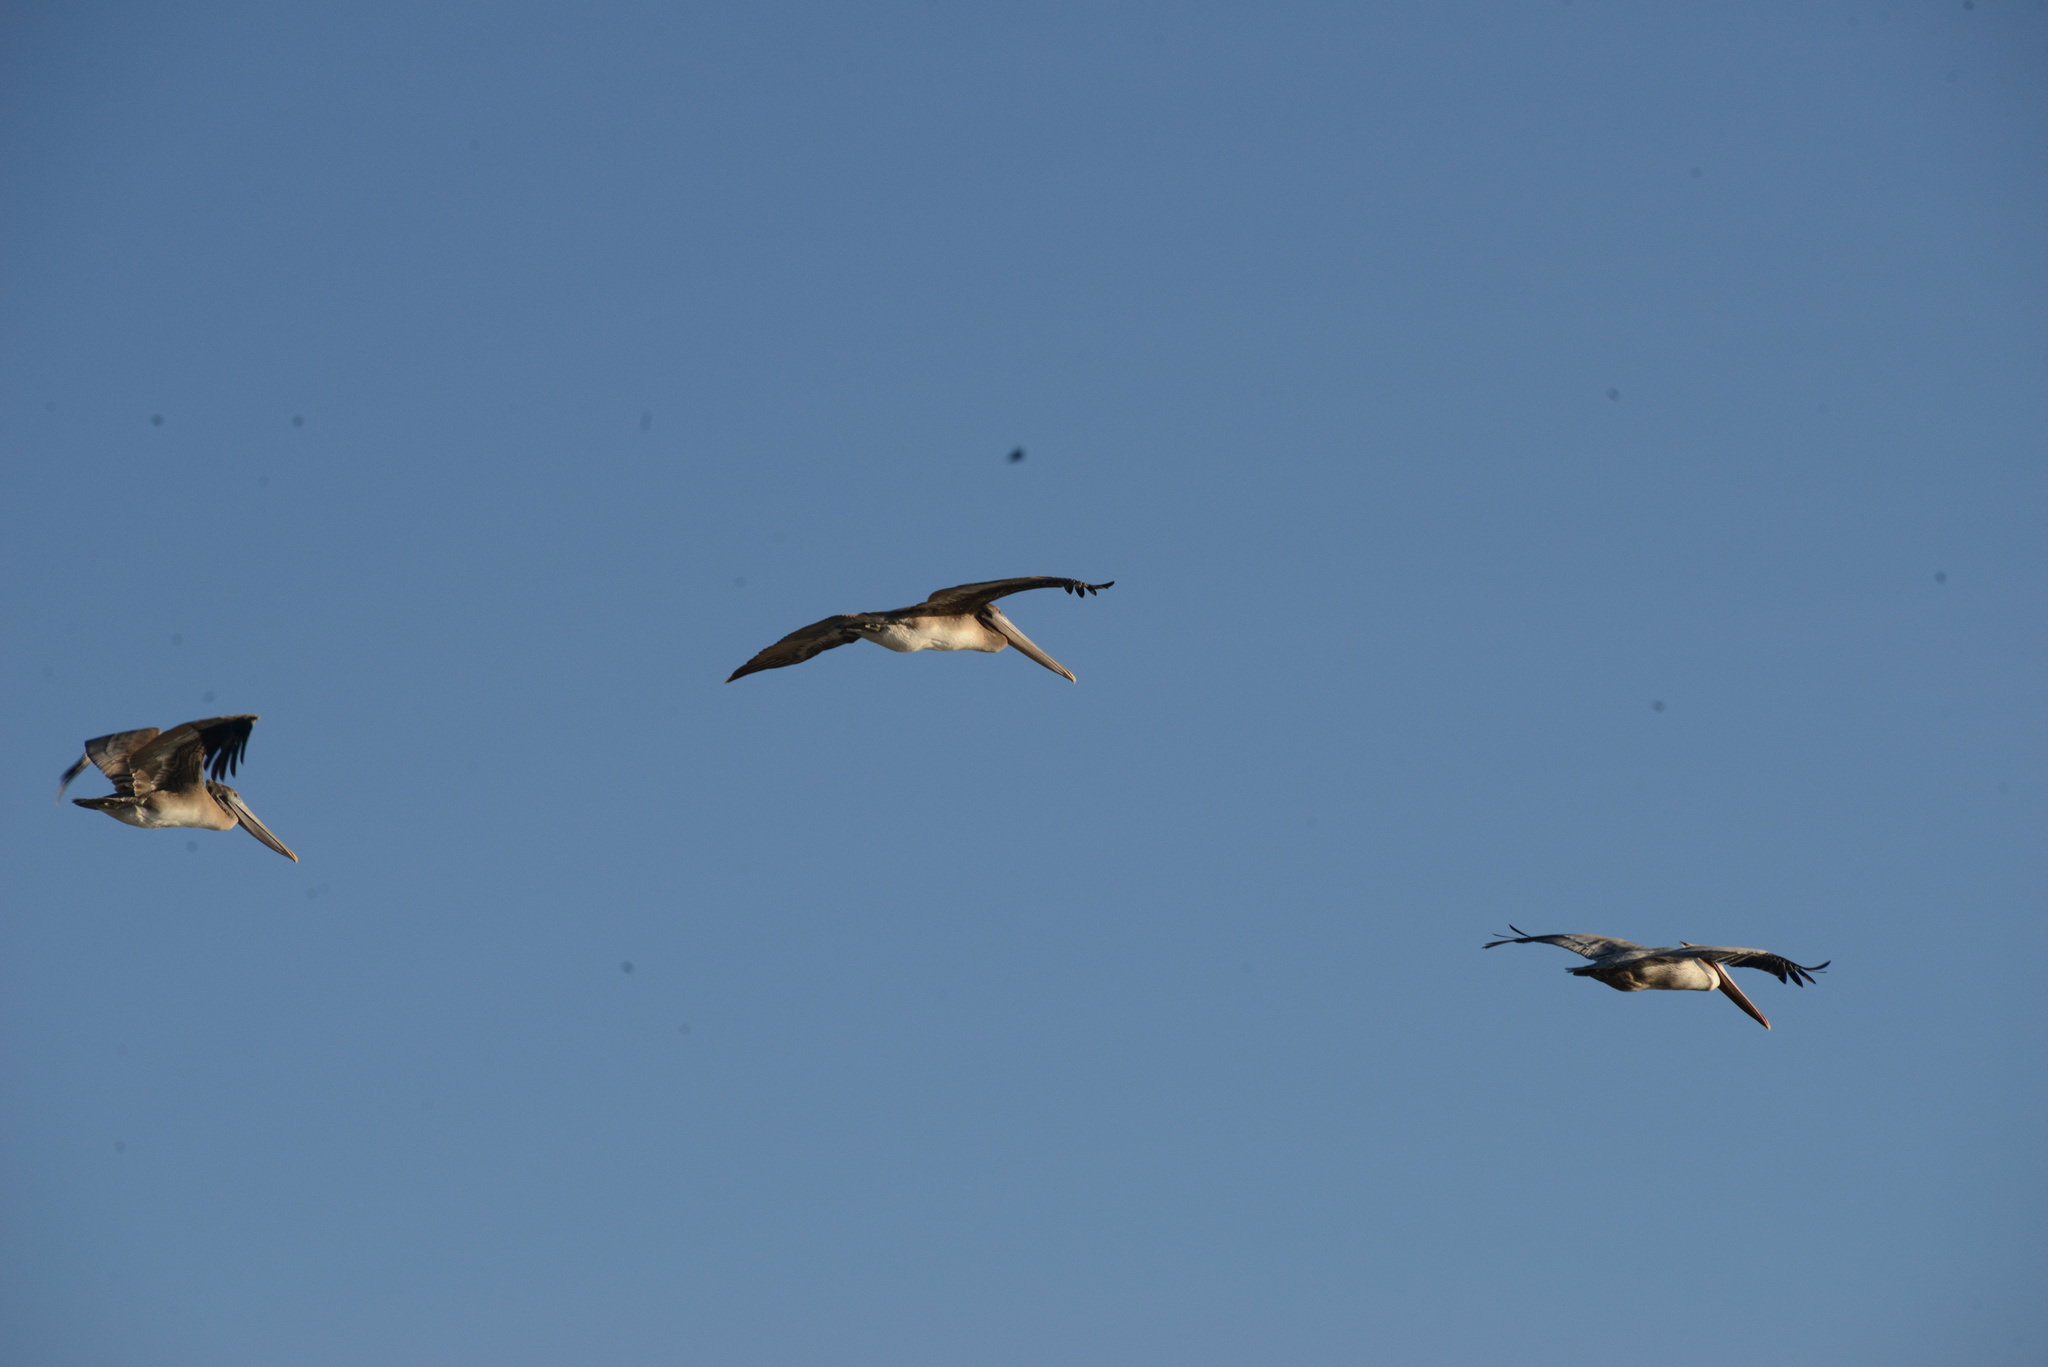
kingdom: Animalia
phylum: Chordata
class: Aves
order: Pelecaniformes
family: Pelecanidae
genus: Pelecanus
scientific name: Pelecanus occidentalis
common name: Brown pelican
